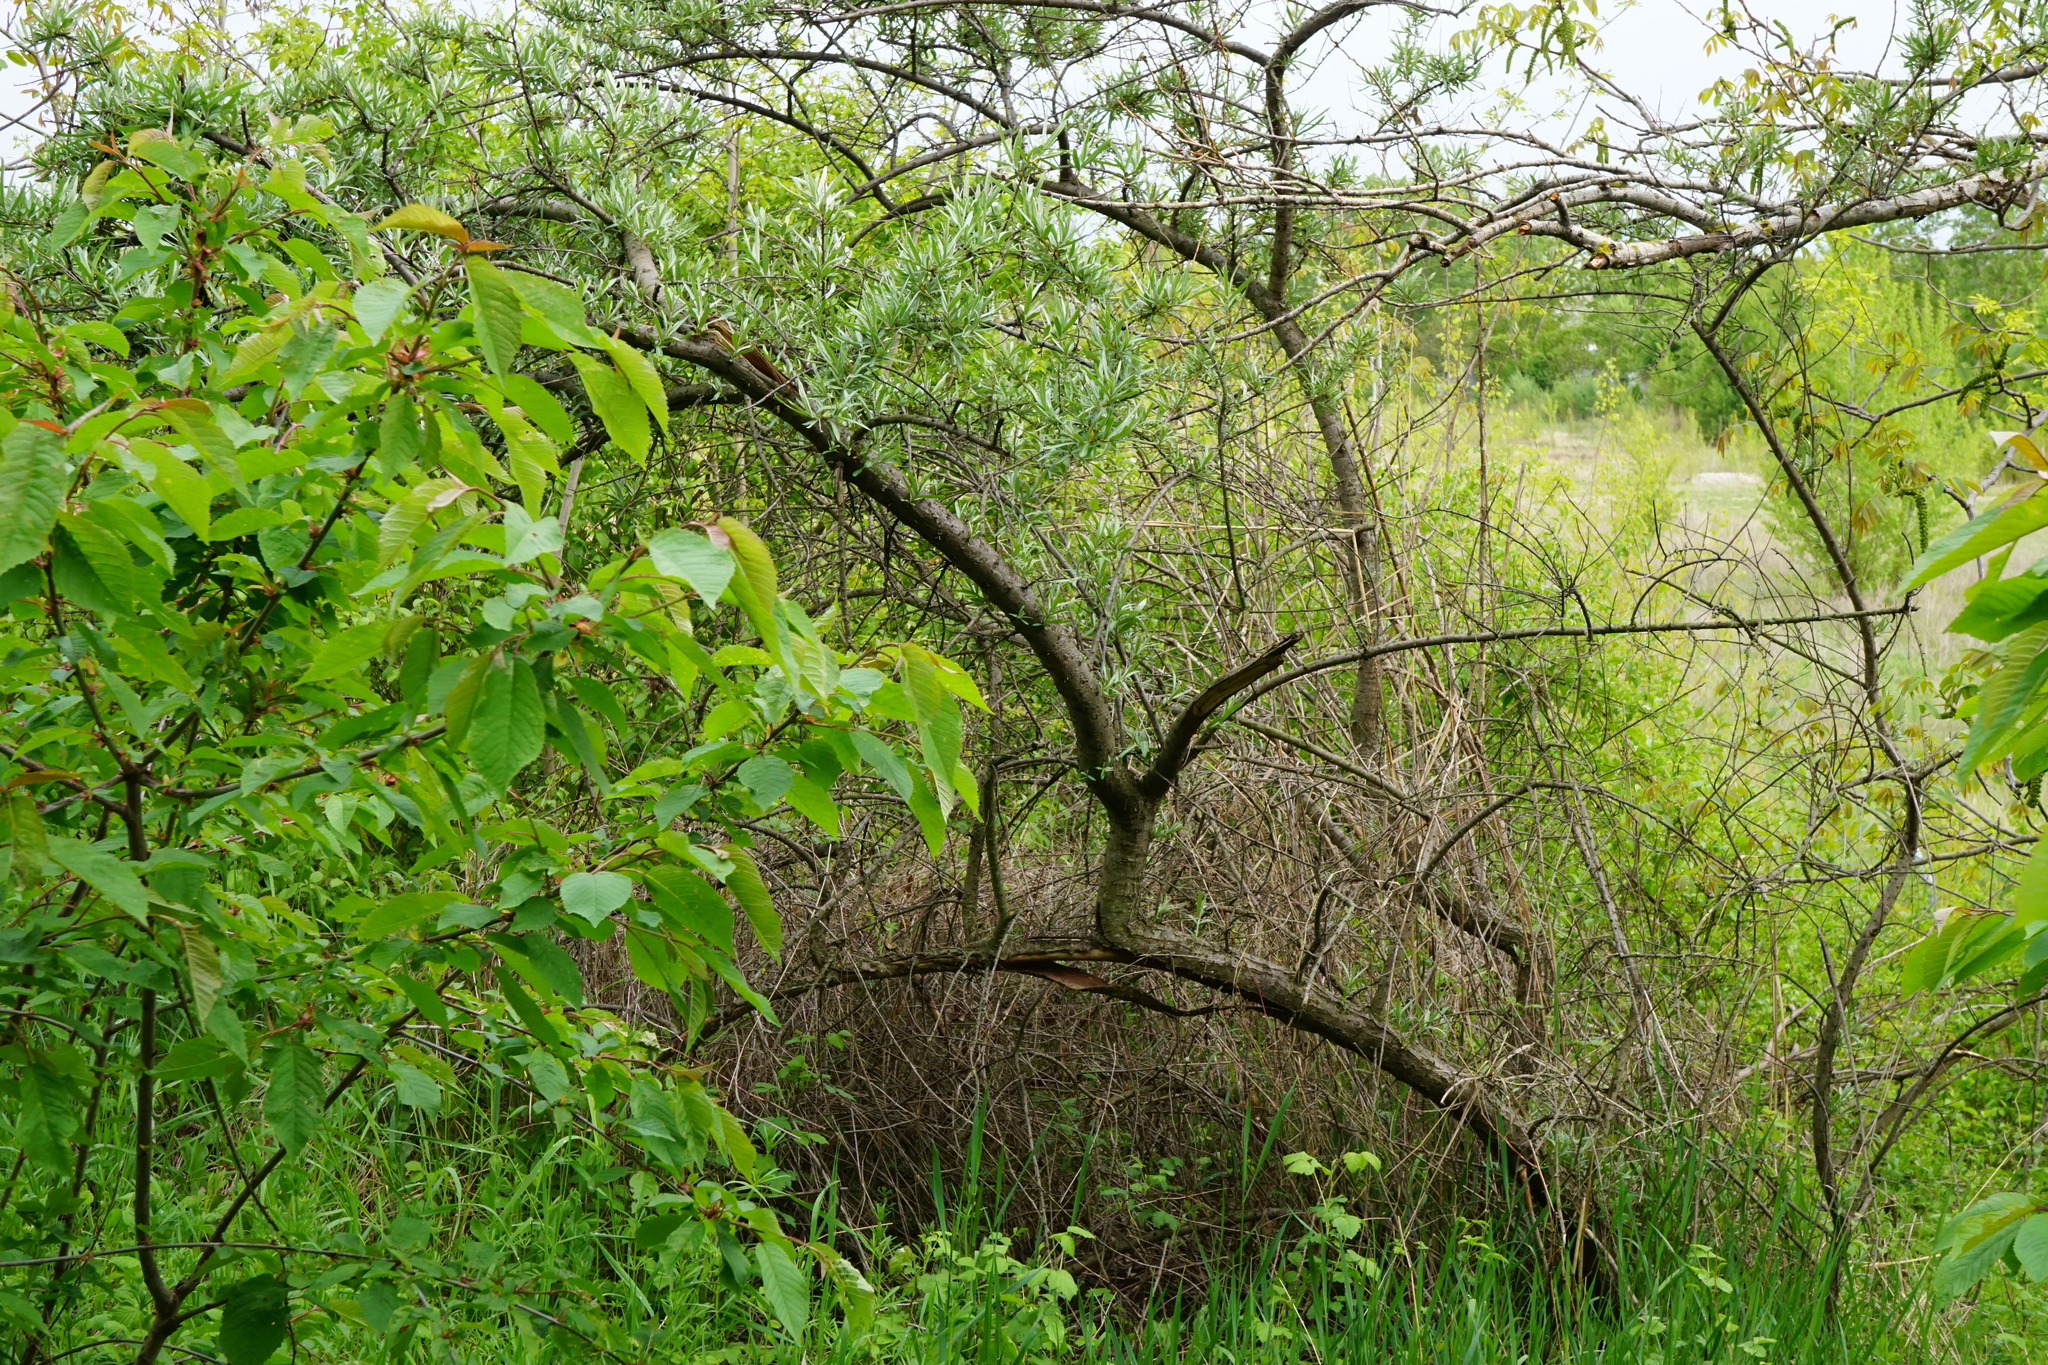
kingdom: Plantae
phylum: Tracheophyta
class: Magnoliopsida
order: Rosales
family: Elaeagnaceae
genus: Hippophae
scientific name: Hippophae rhamnoides
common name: Sea-buckthorn
